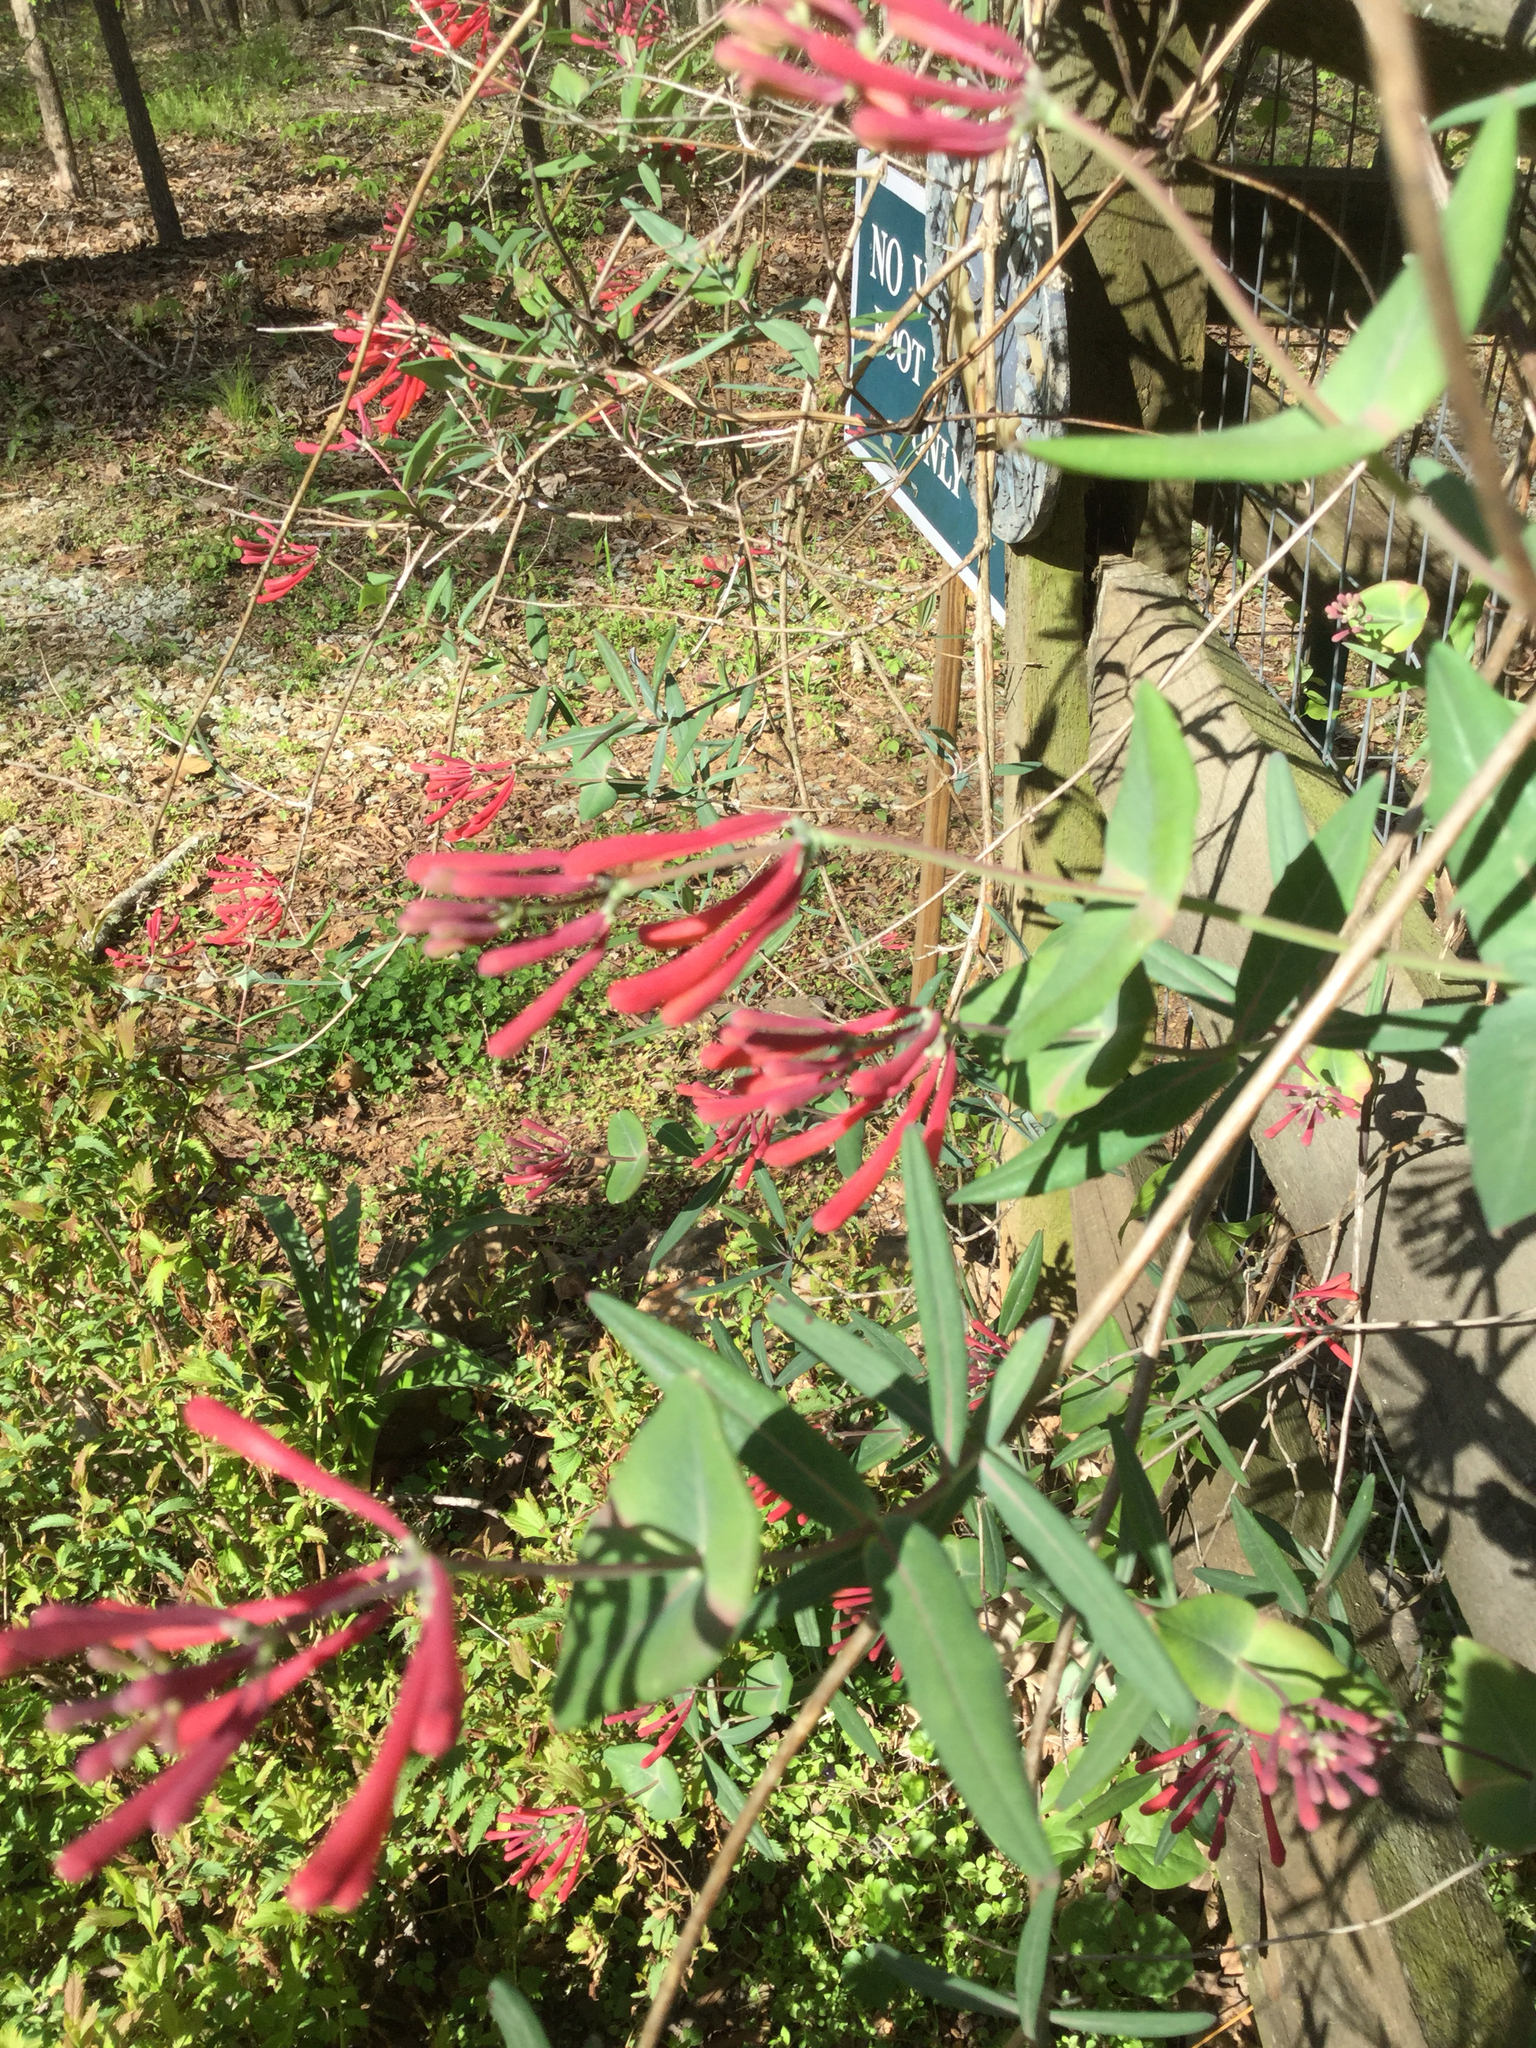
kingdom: Plantae
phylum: Tracheophyta
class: Magnoliopsida
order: Dipsacales
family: Caprifoliaceae
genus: Lonicera
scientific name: Lonicera sempervirens
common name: Coral honeysuckle
